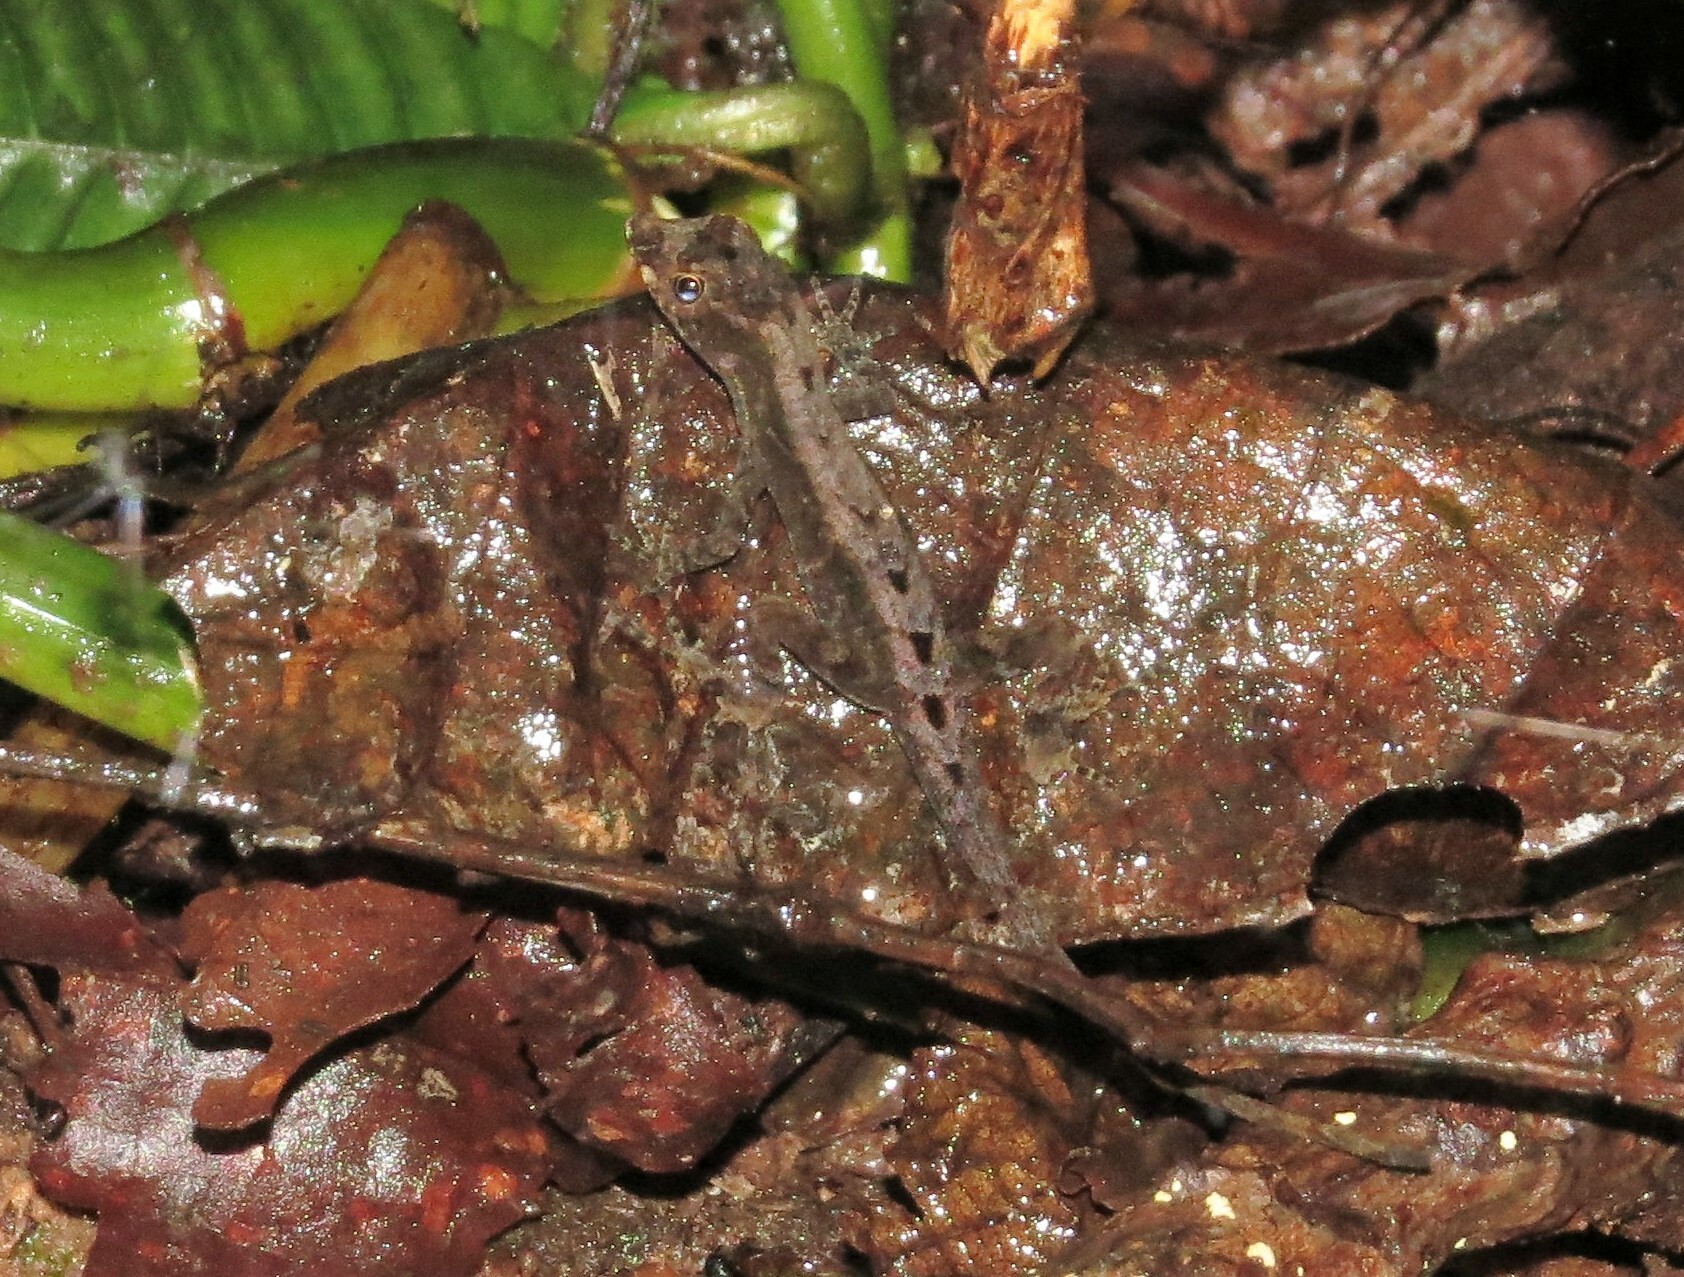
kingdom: Animalia
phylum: Chordata
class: Squamata
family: Dactyloidae
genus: Anolis
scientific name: Anolis humilis
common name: Humble anole
